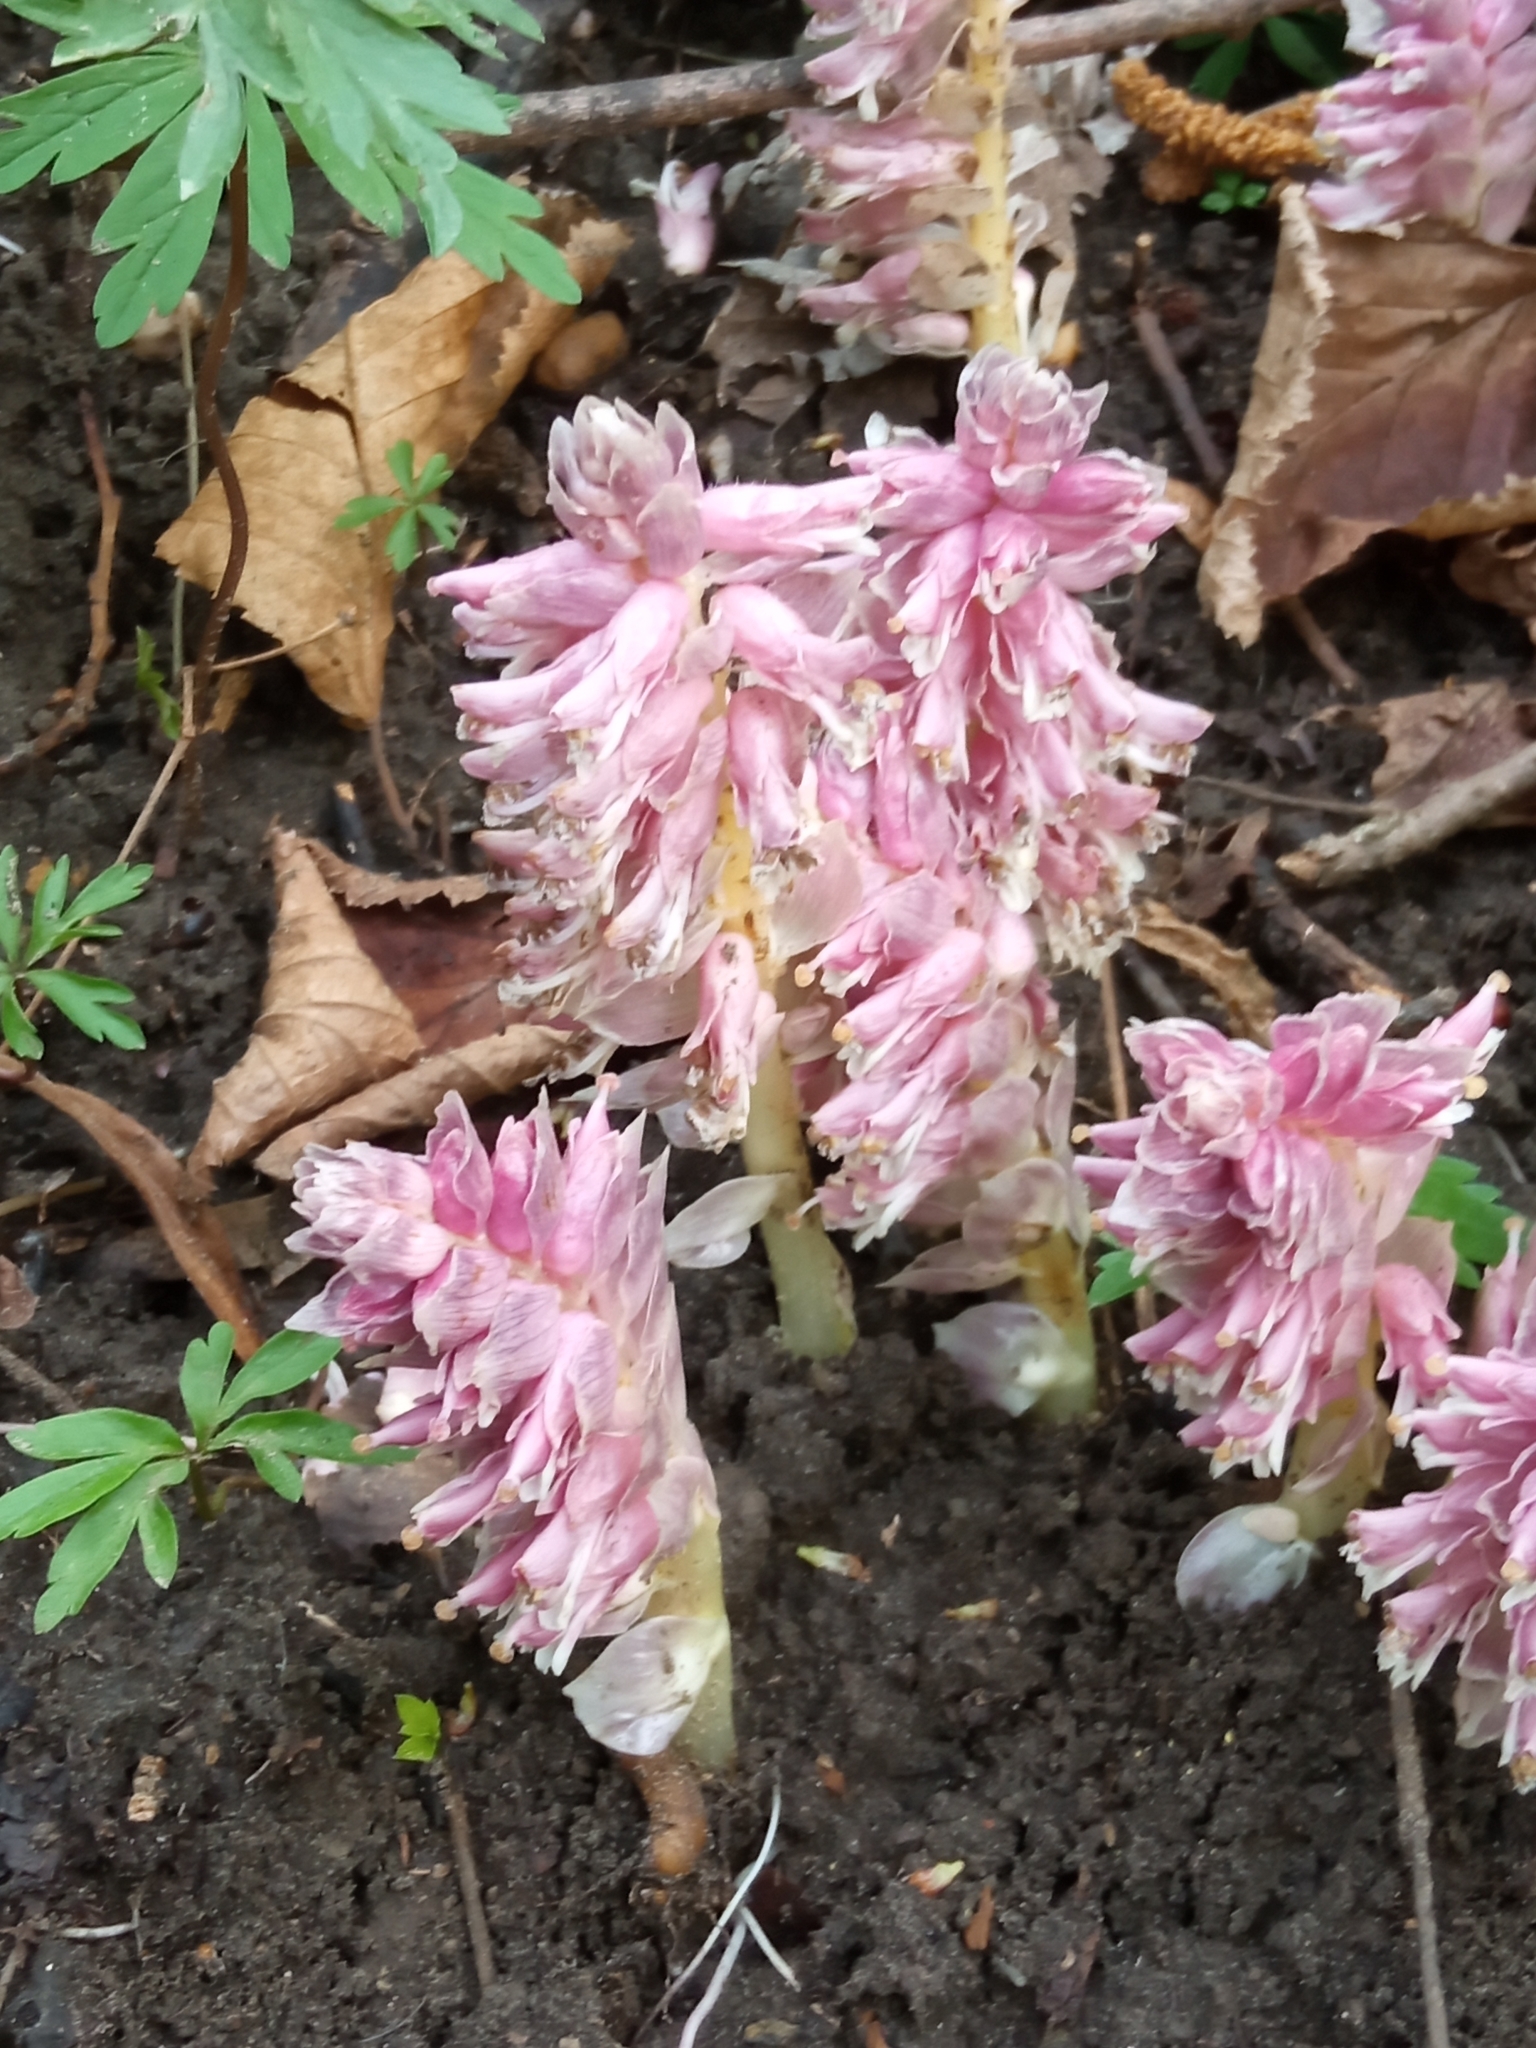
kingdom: Plantae
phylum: Tracheophyta
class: Magnoliopsida
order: Lamiales
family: Orobanchaceae
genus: Lathraea
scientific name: Lathraea squamaria
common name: Toothwort
